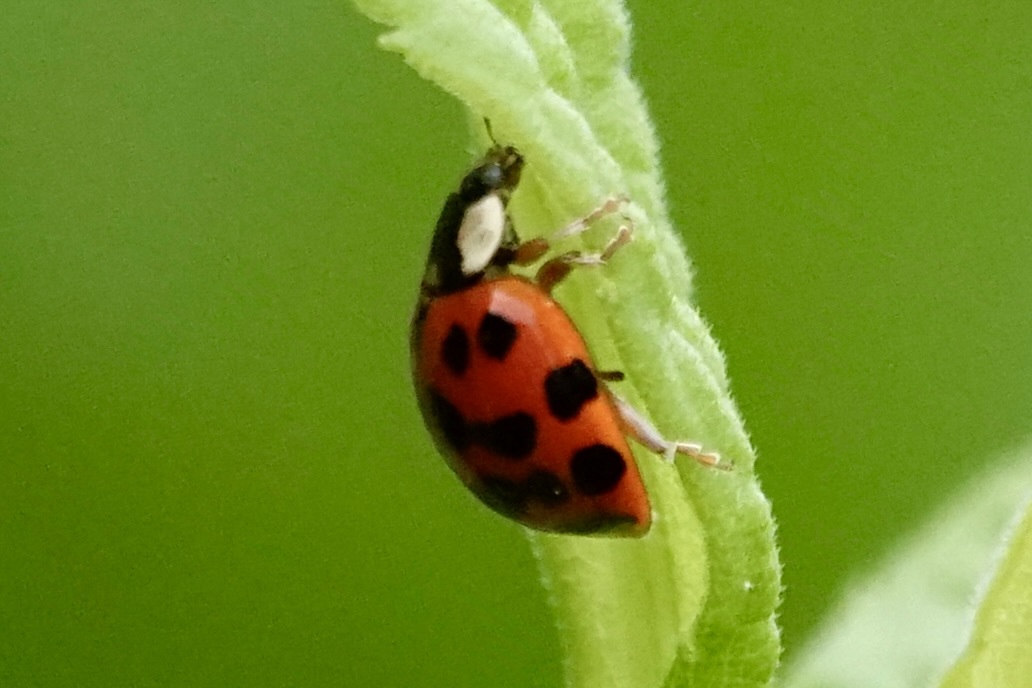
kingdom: Animalia
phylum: Arthropoda
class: Insecta
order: Coleoptera
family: Coccinellidae
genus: Harmonia
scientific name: Harmonia axyridis
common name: Harlequin ladybird
